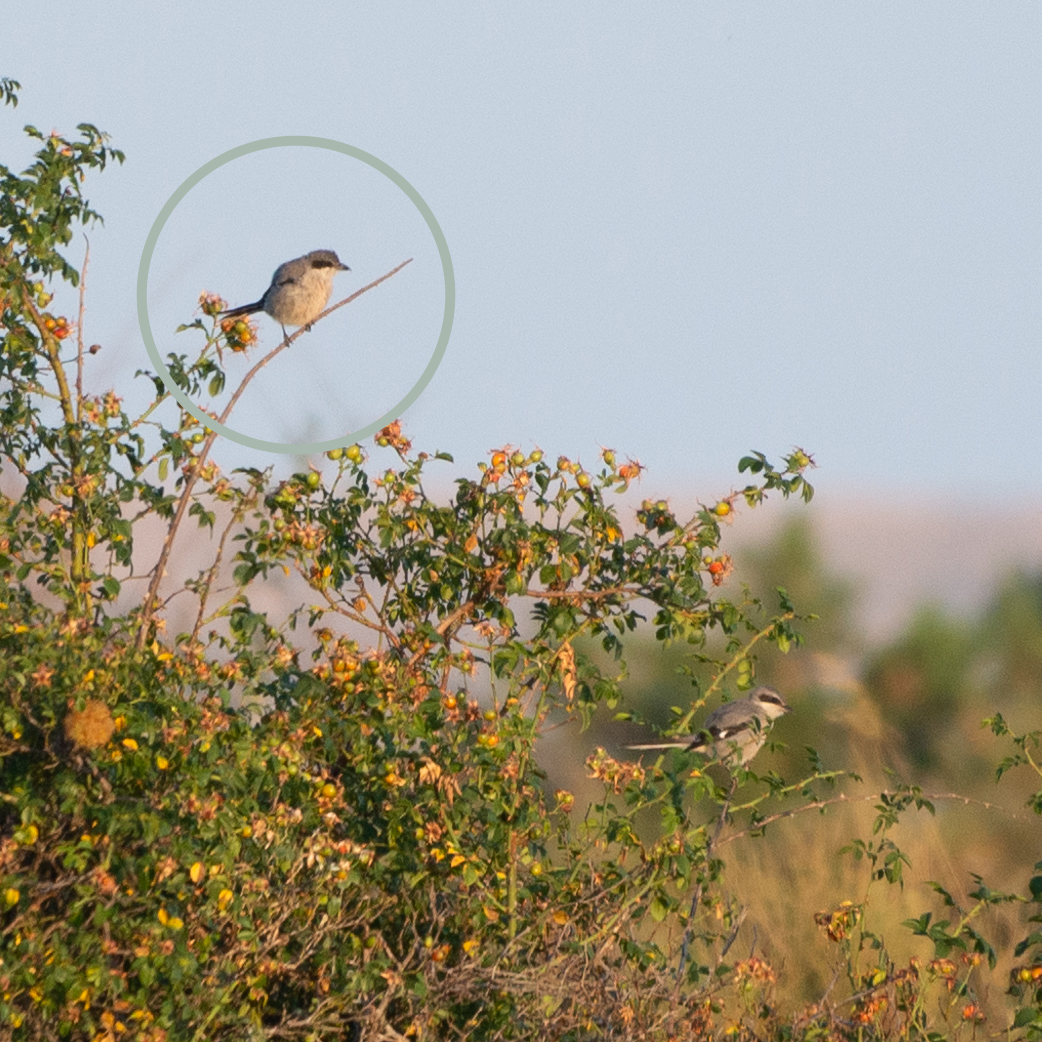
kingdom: Animalia
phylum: Chordata
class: Aves
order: Passeriformes
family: Laniidae
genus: Lanius
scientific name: Lanius meridionalis
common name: Iberian grey shrike
